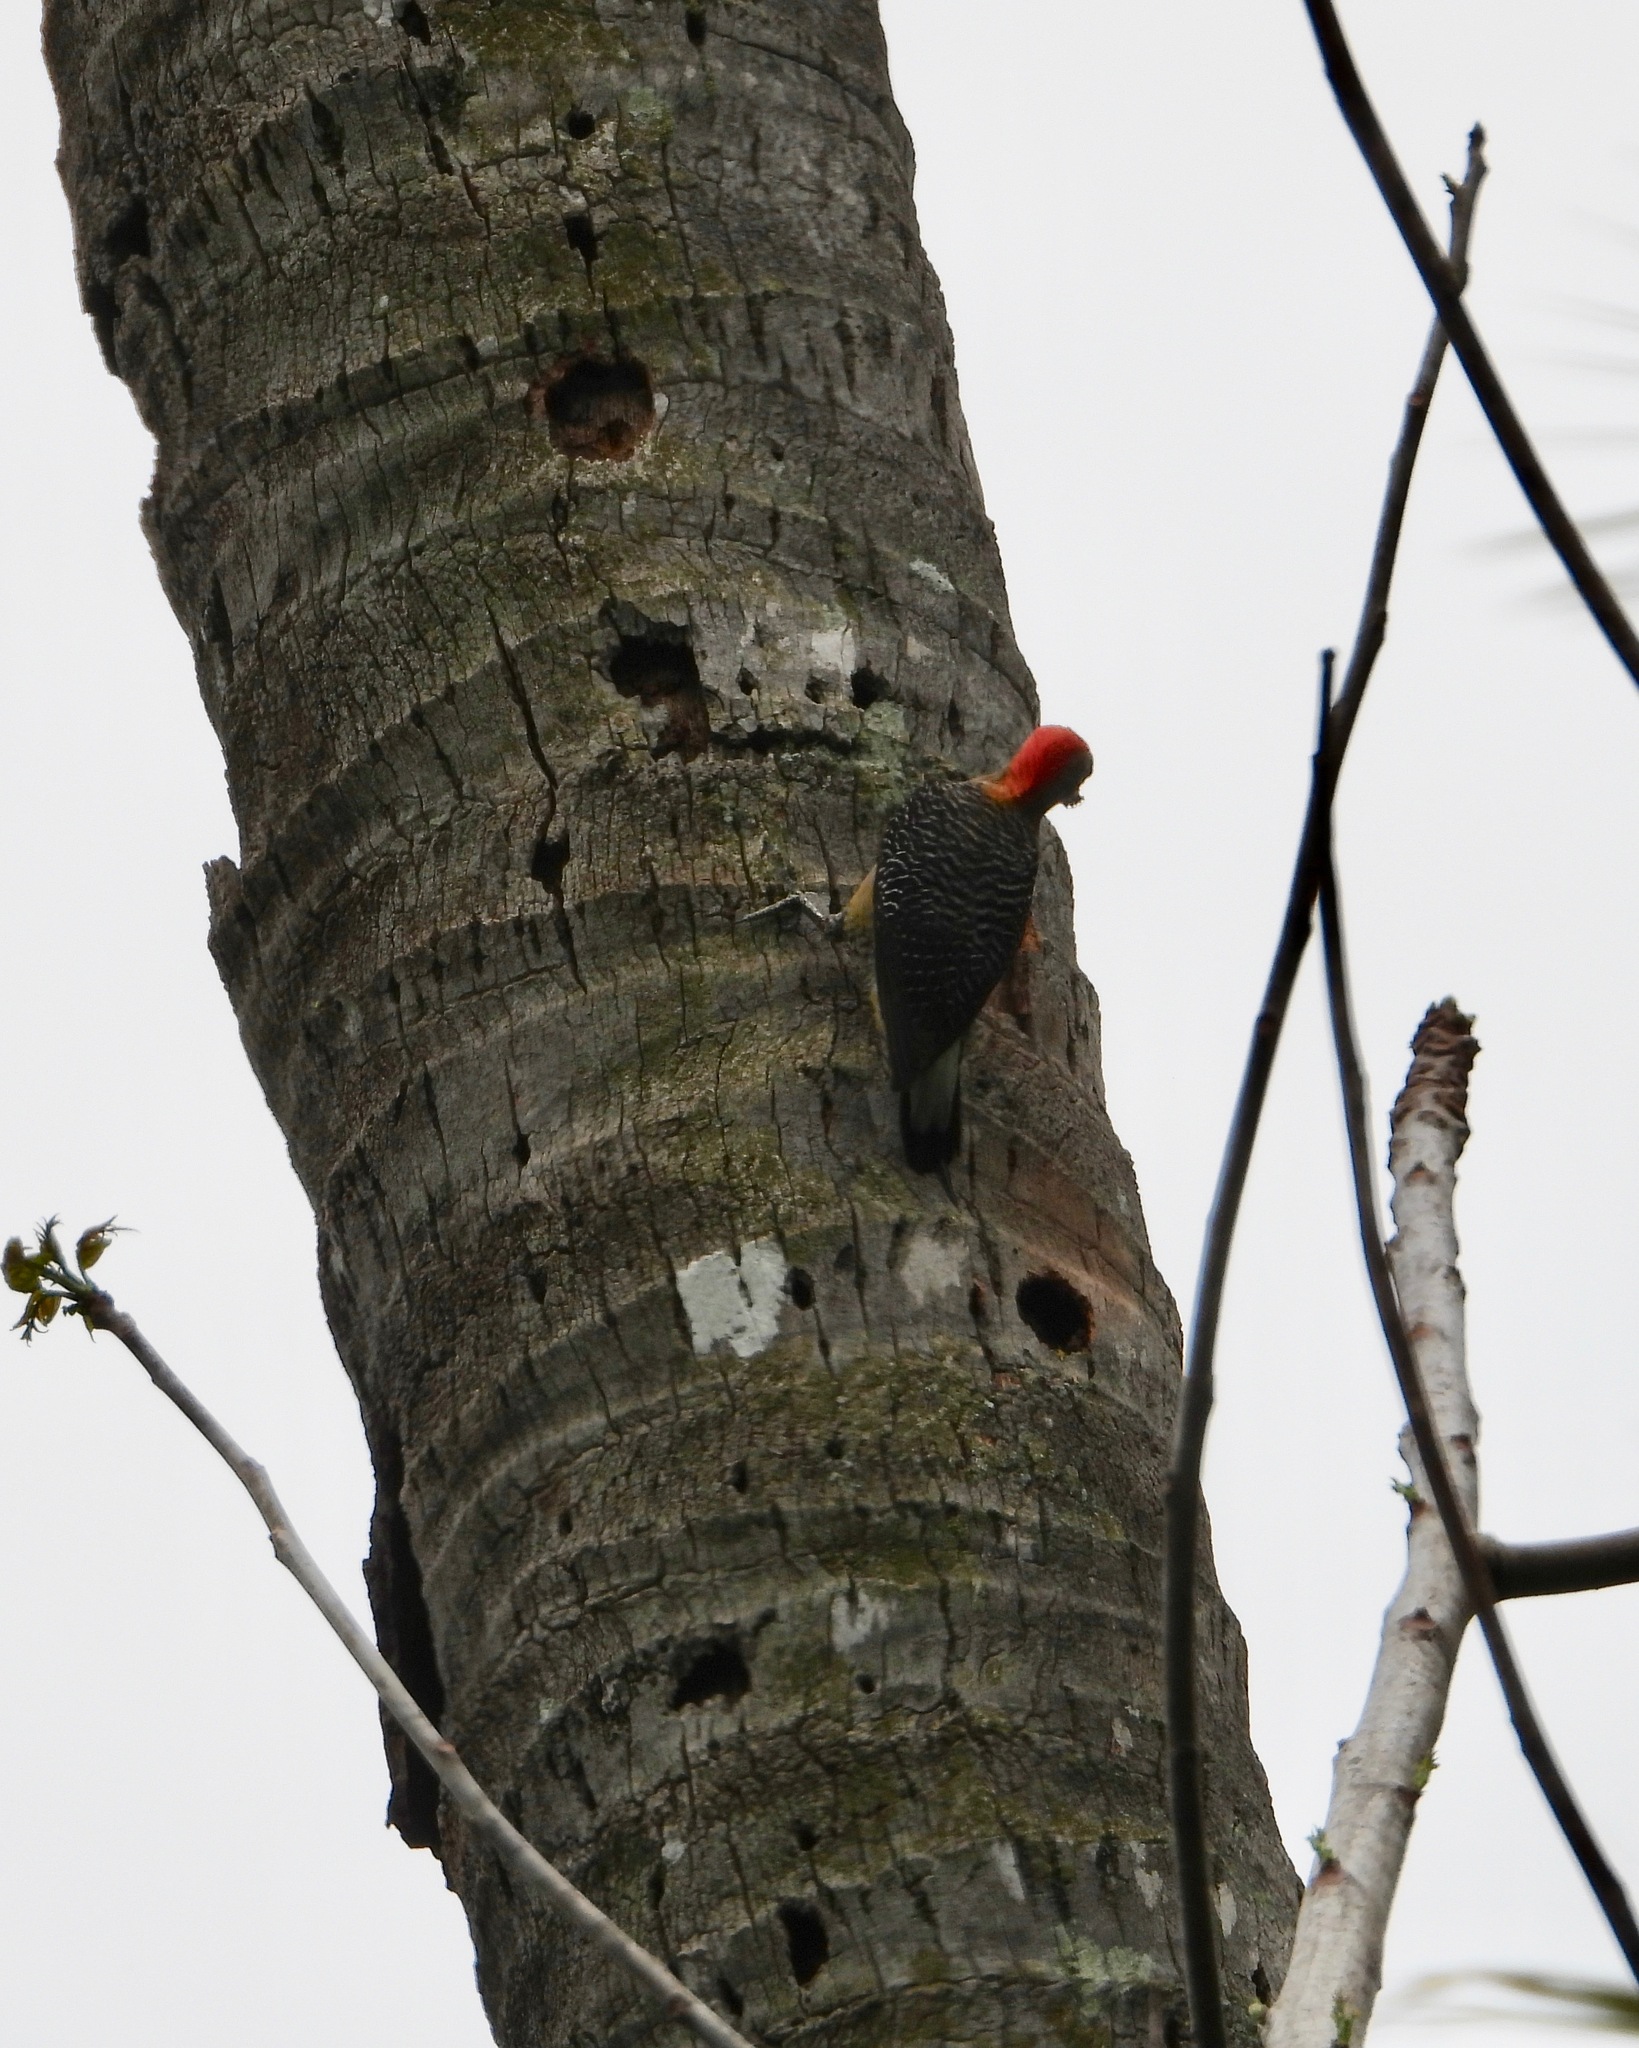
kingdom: Animalia
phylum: Chordata
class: Aves
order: Piciformes
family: Picidae
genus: Melanerpes
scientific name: Melanerpes aurifrons
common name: Golden-fronted woodpecker
